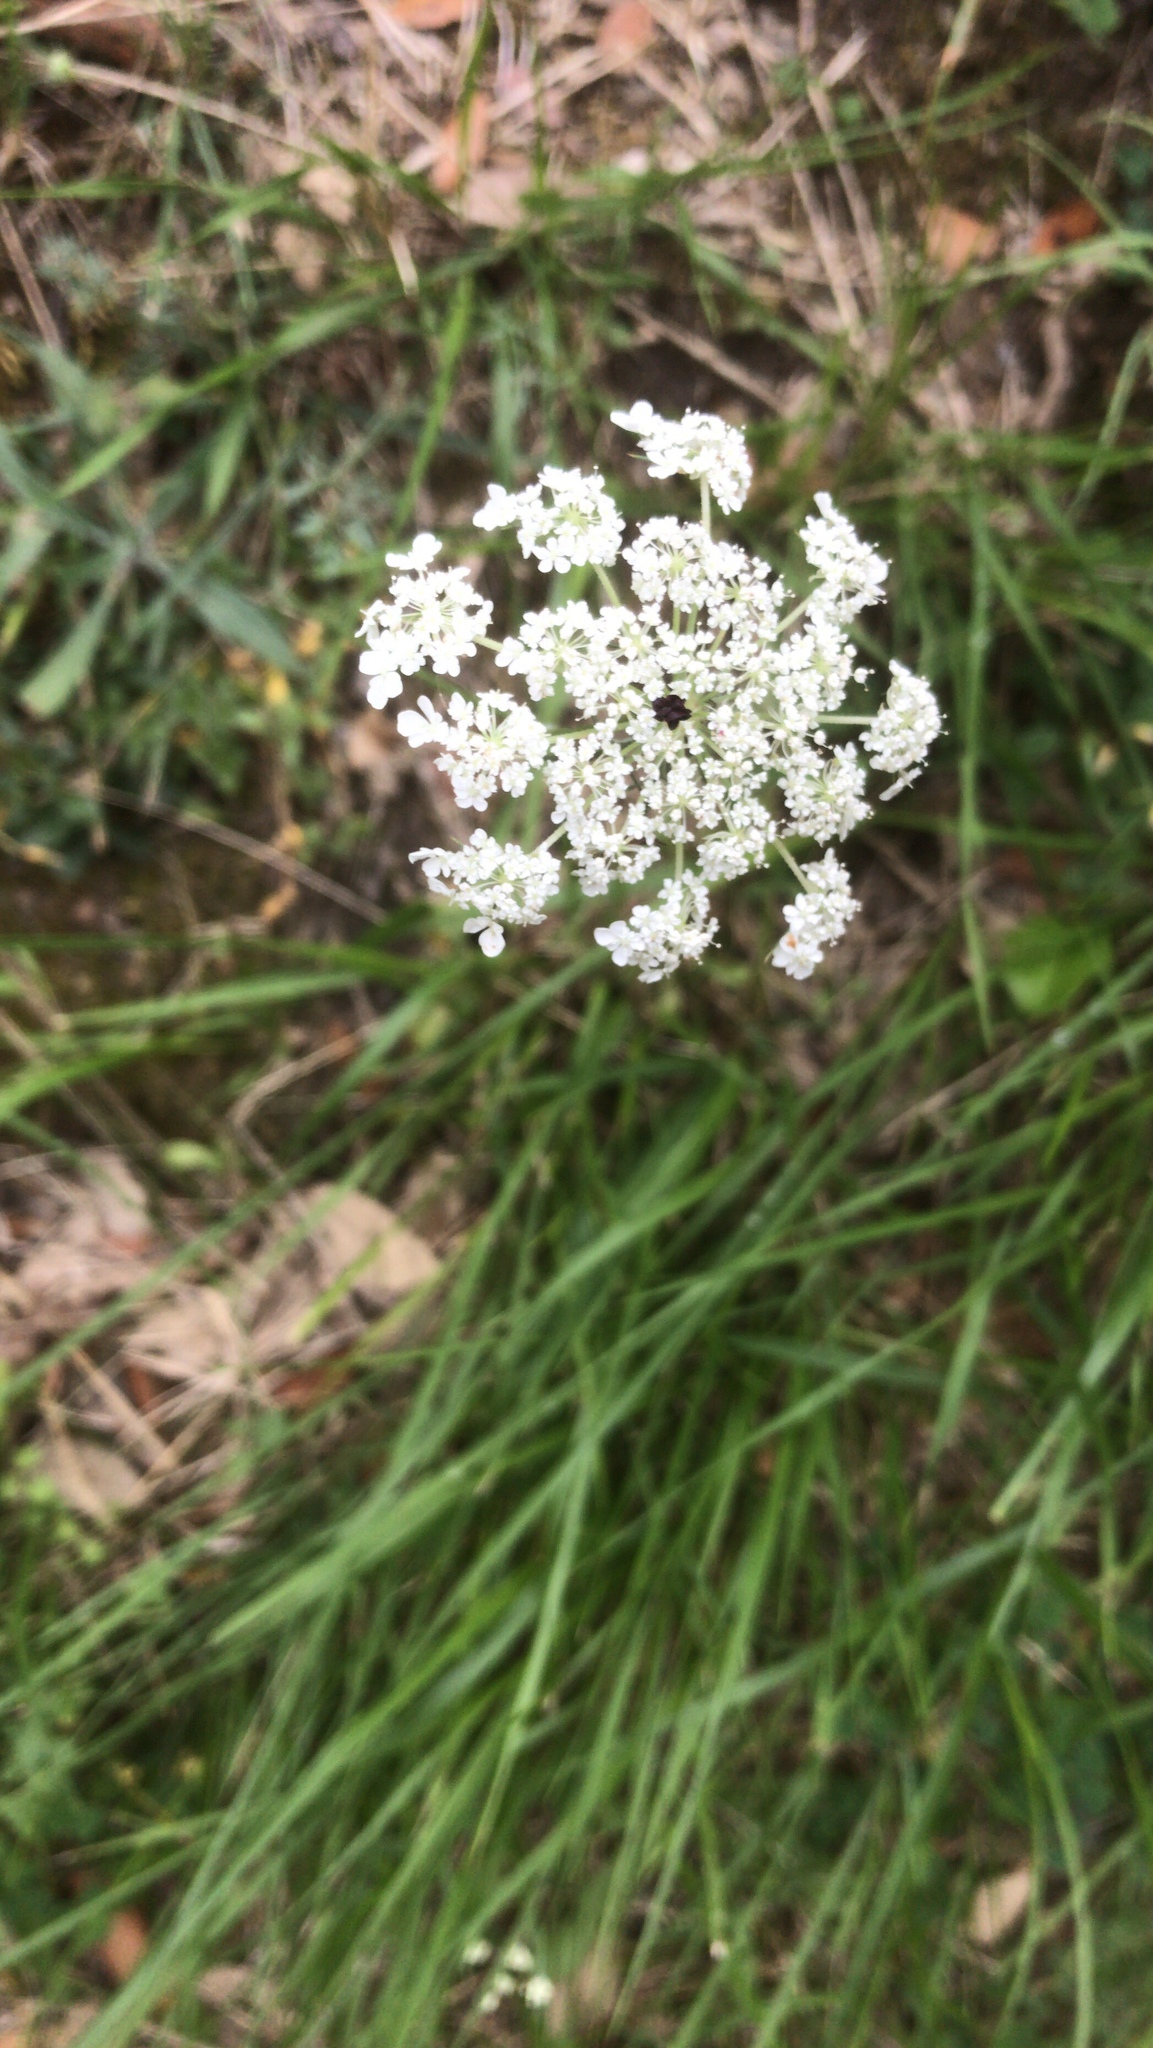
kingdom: Plantae
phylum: Tracheophyta
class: Magnoliopsida
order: Apiales
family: Apiaceae
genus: Daucus
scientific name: Daucus carota
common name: Wild carrot
